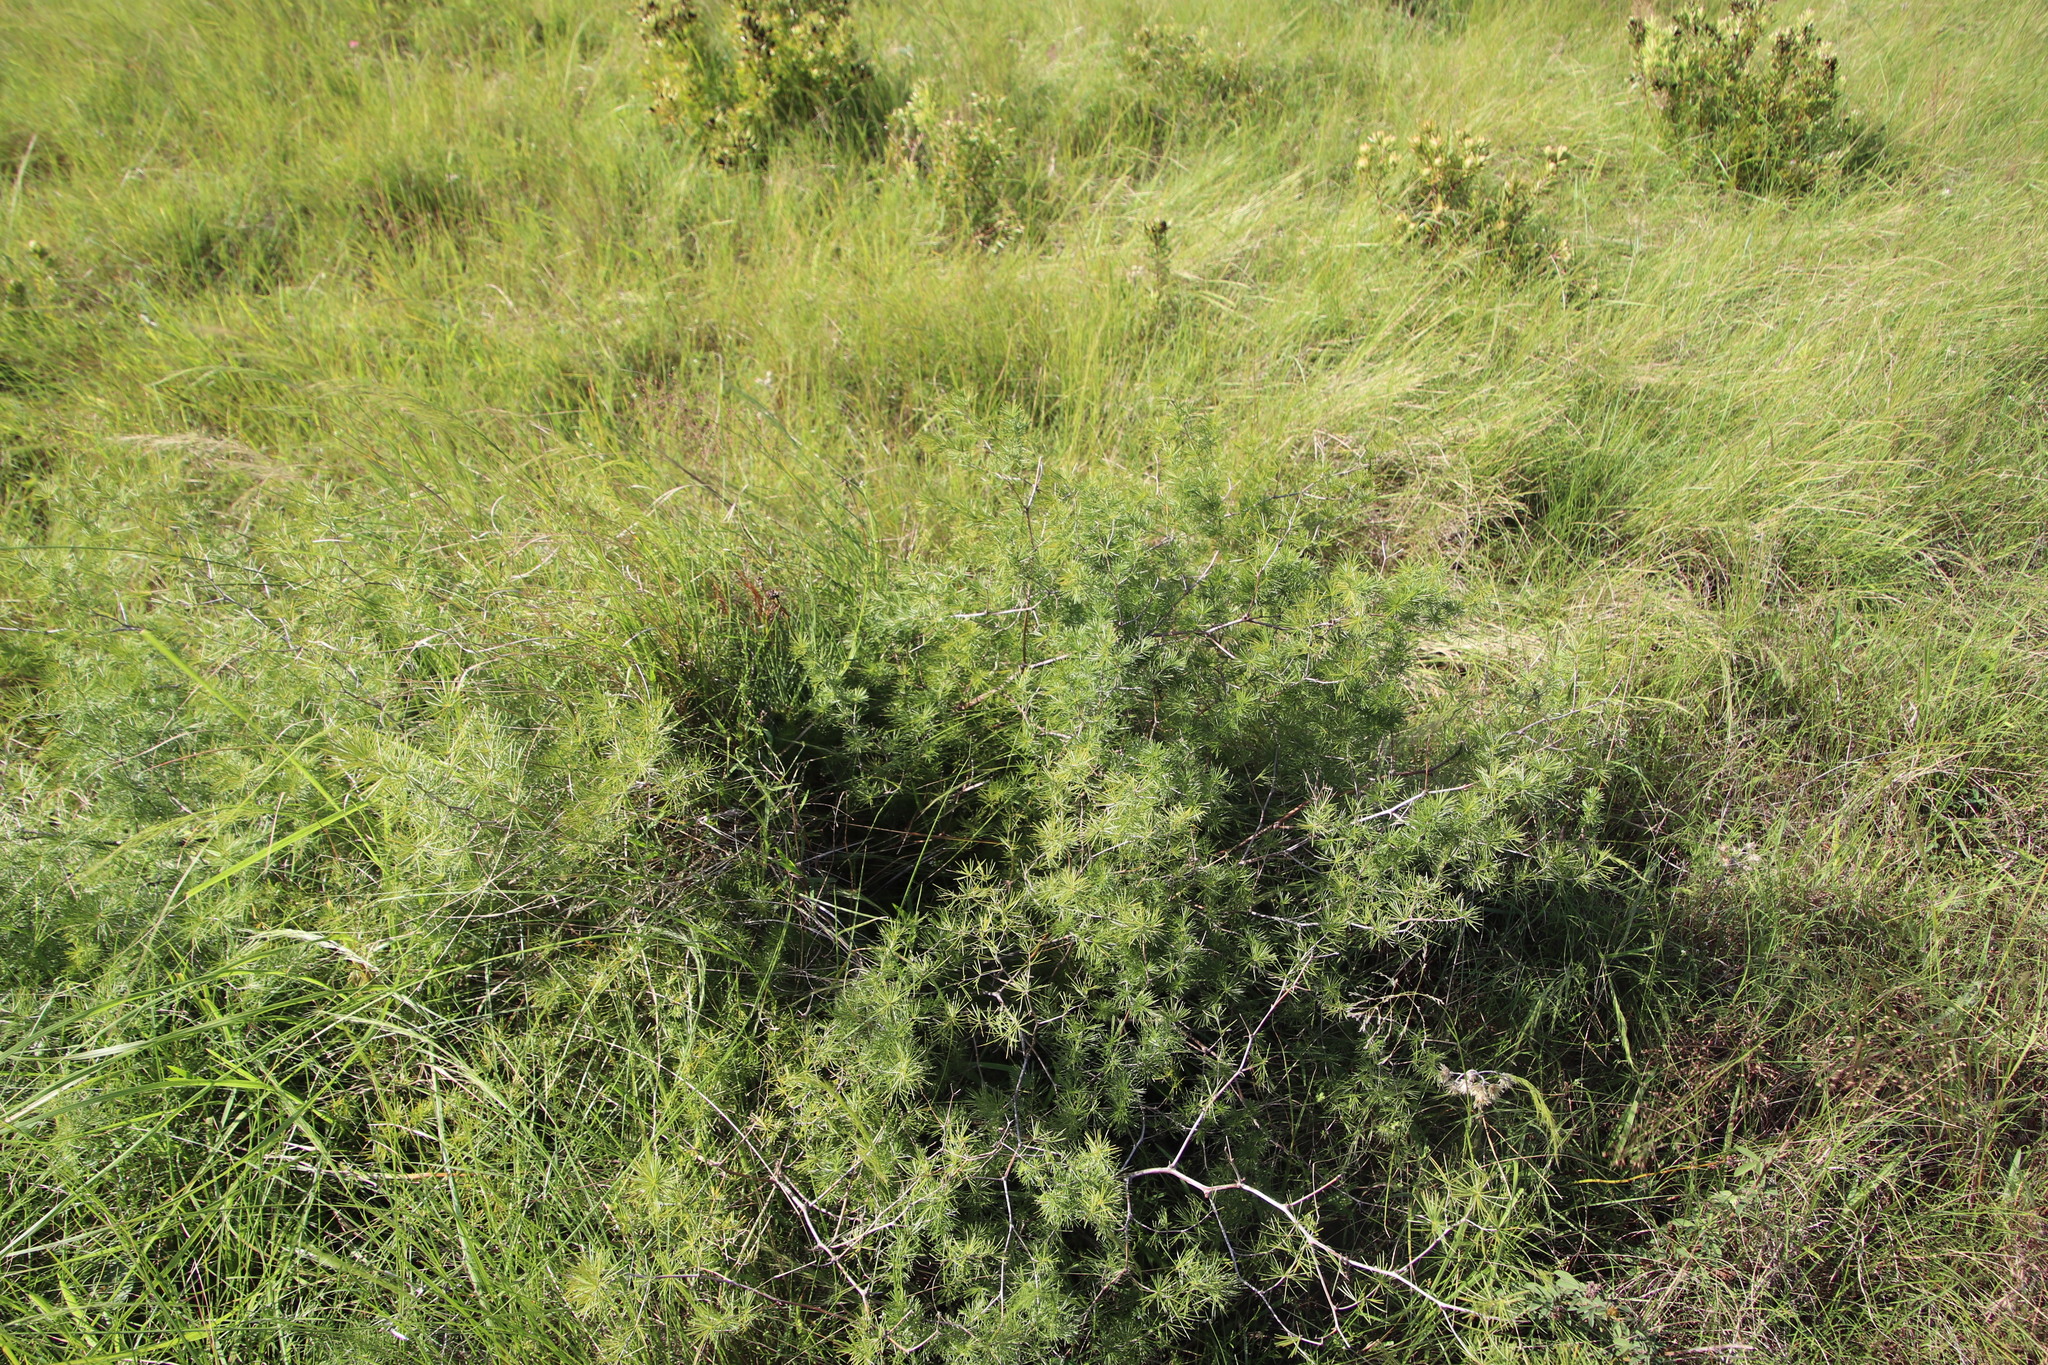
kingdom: Plantae
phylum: Tracheophyta
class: Liliopsida
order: Asparagales
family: Asparagaceae
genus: Asparagus
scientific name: Asparagus laricinus
